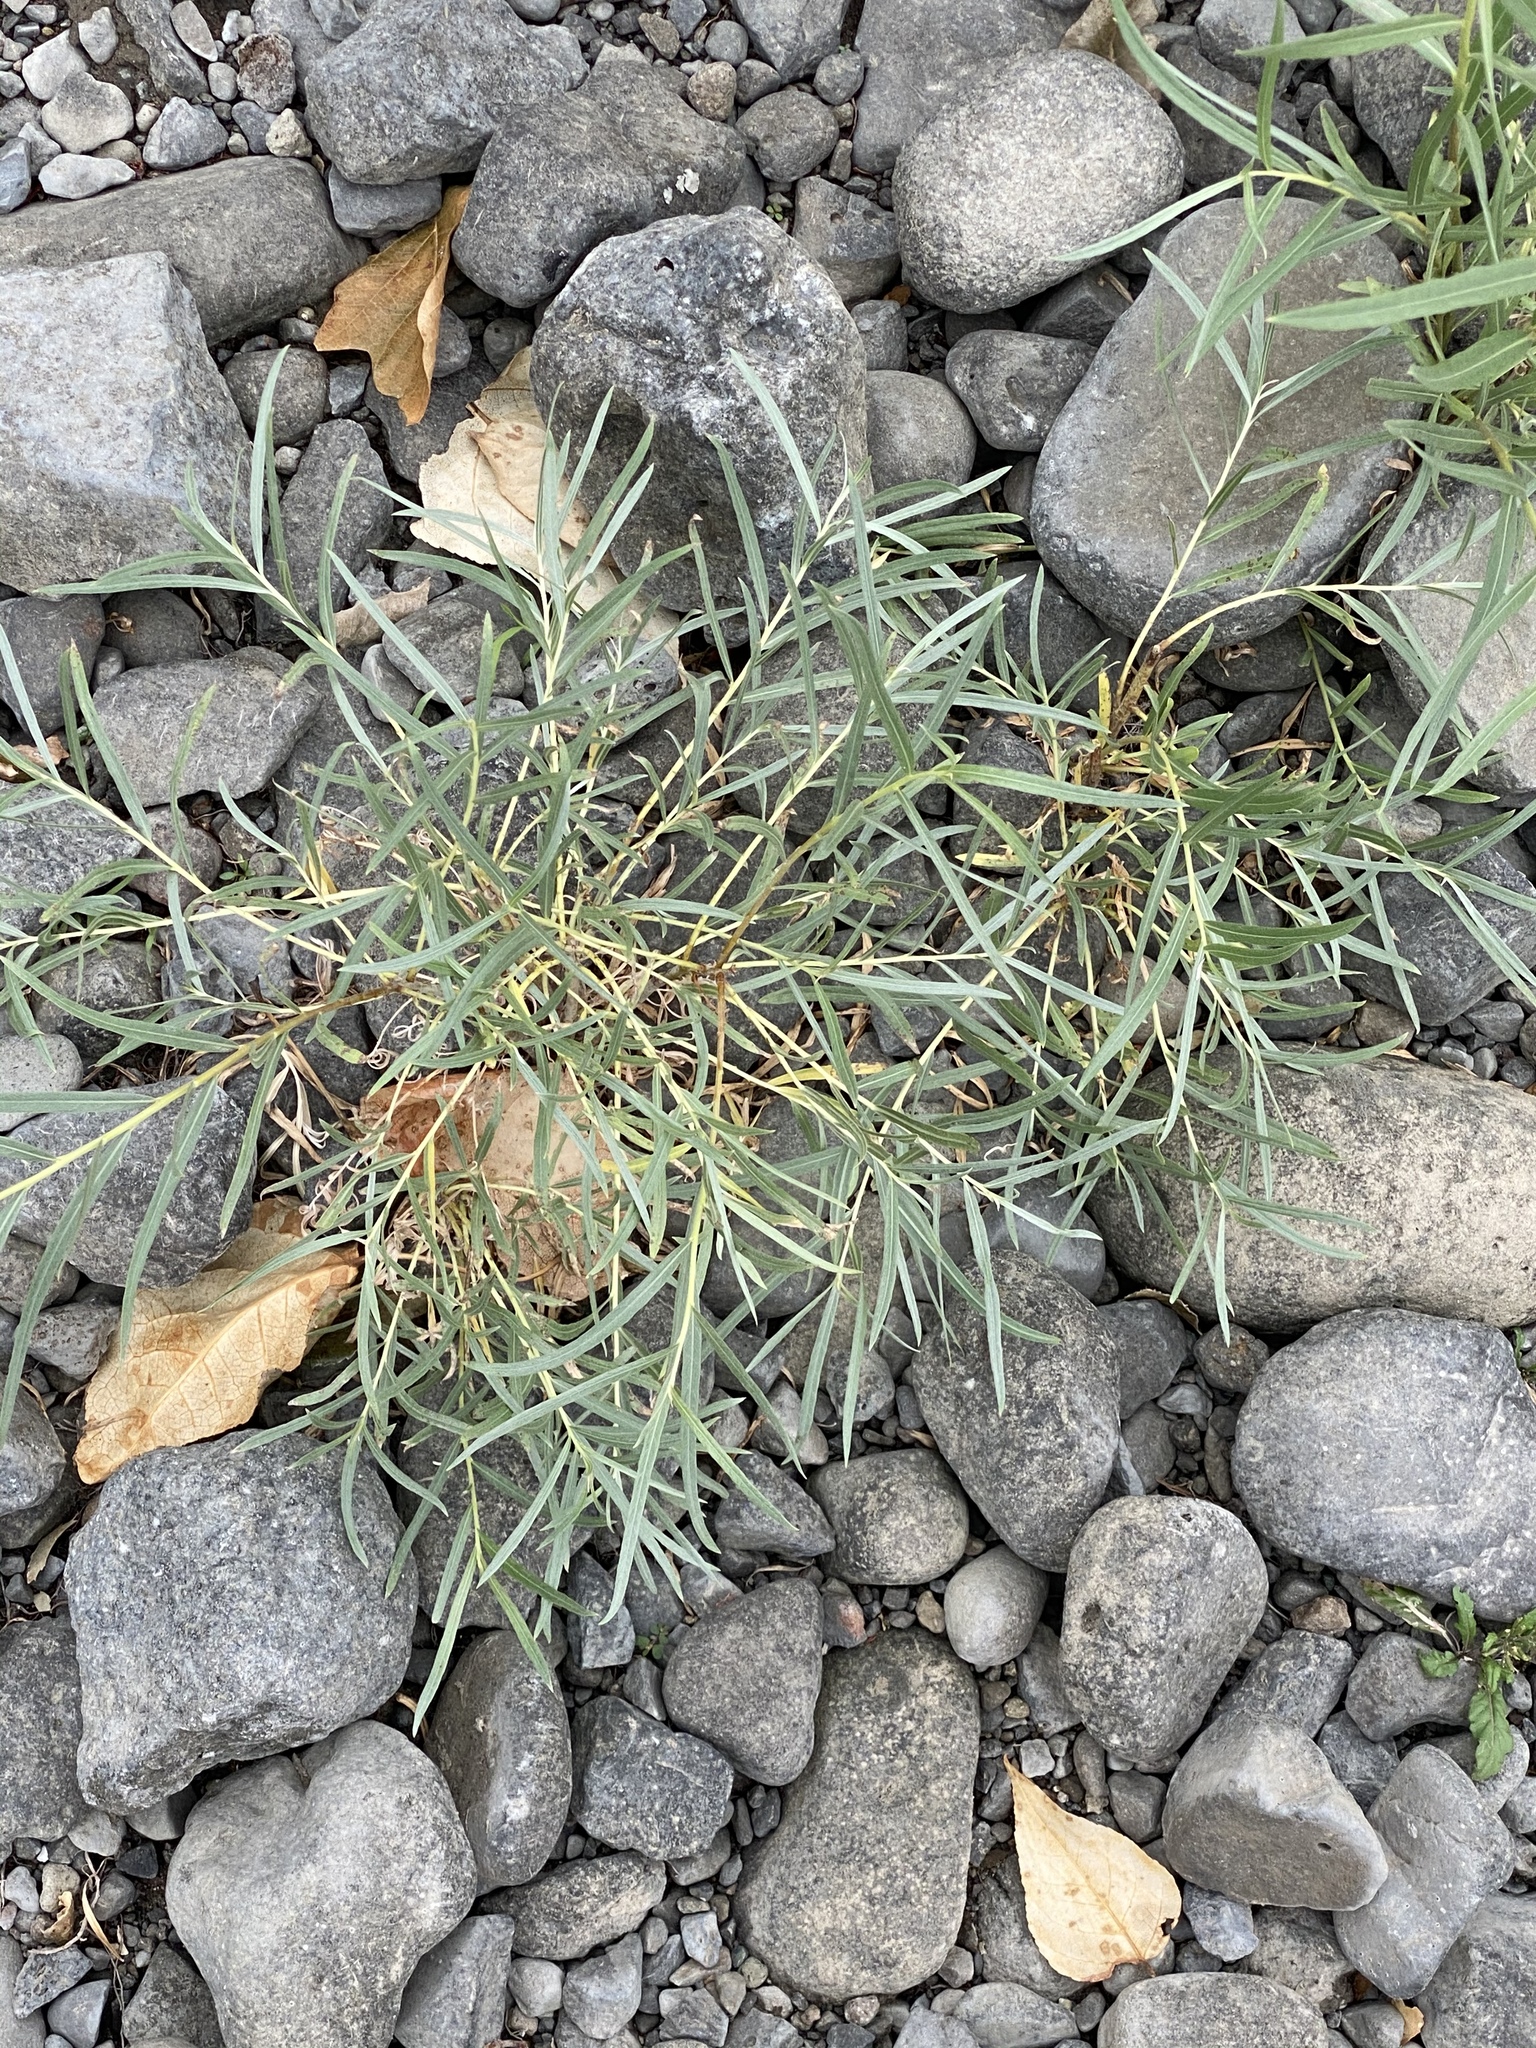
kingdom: Plantae
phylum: Tracheophyta
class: Magnoliopsida
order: Malpighiales
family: Salicaceae
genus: Salix
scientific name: Salix exigua
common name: Coyote willow
